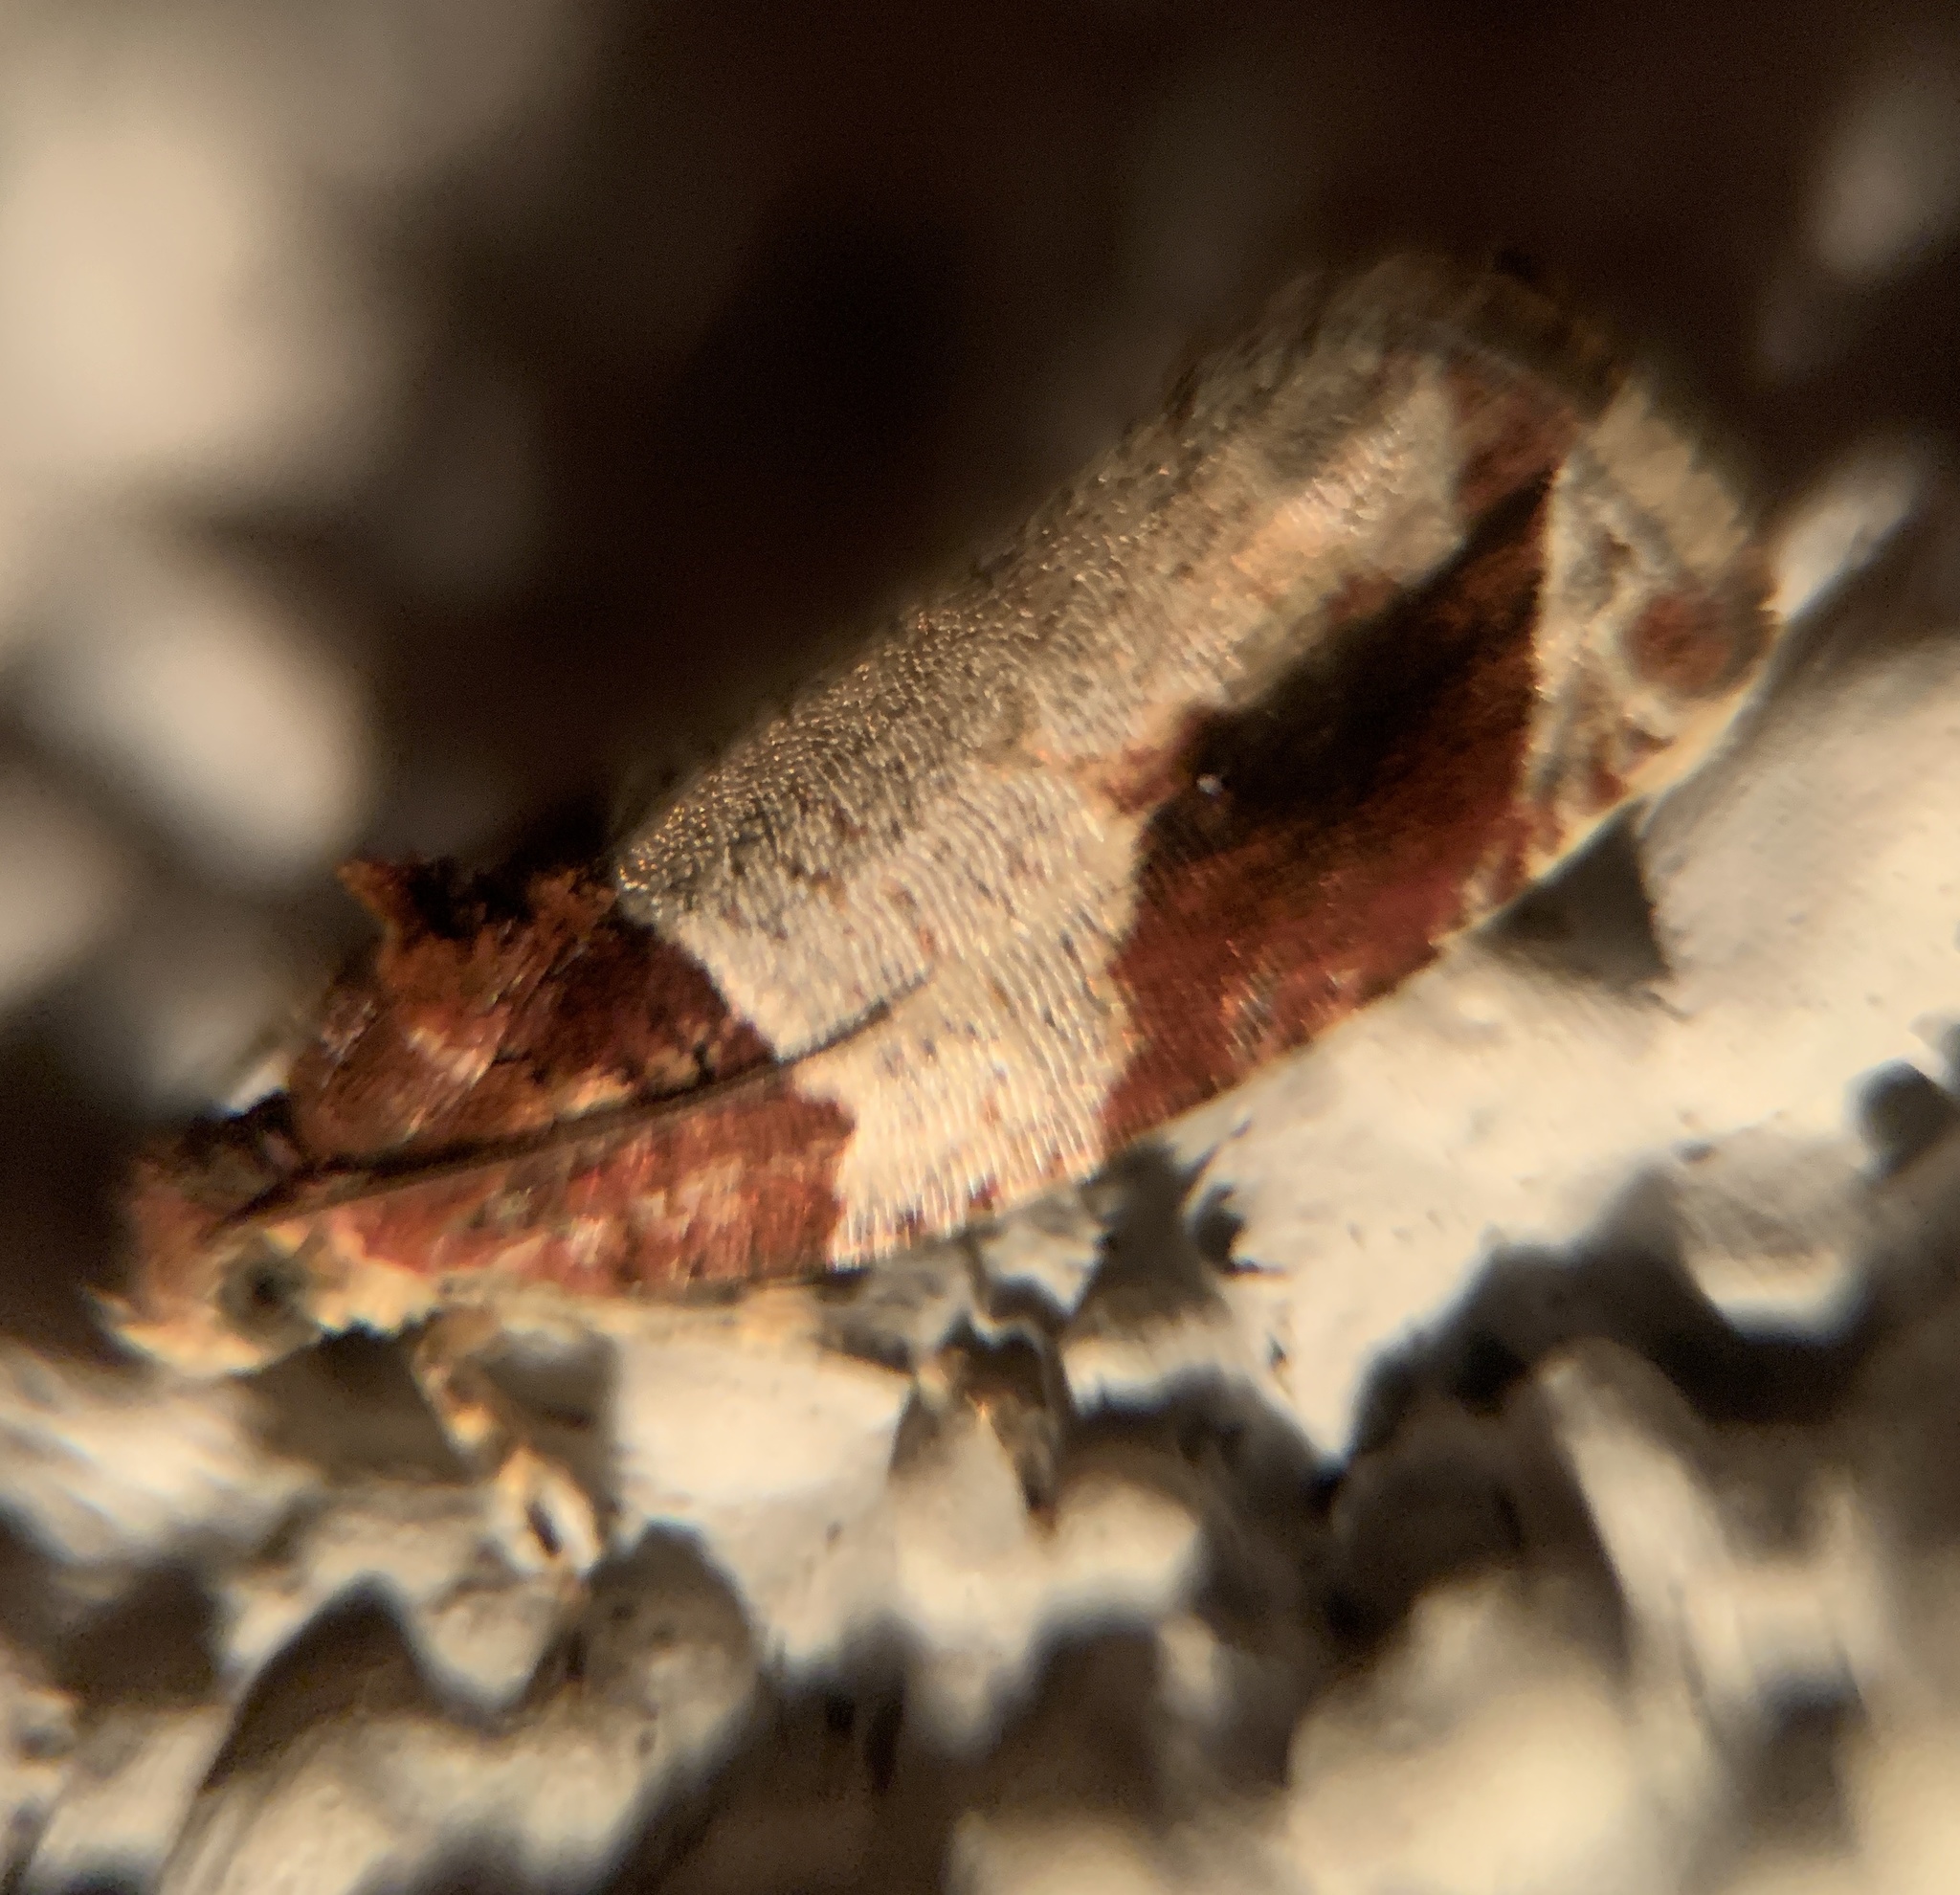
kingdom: Animalia
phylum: Arthropoda
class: Insecta
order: Lepidoptera
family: Tortricidae
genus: Olethreutes
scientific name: Olethreutes ferriferana
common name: Hydrangea leaftier moth
